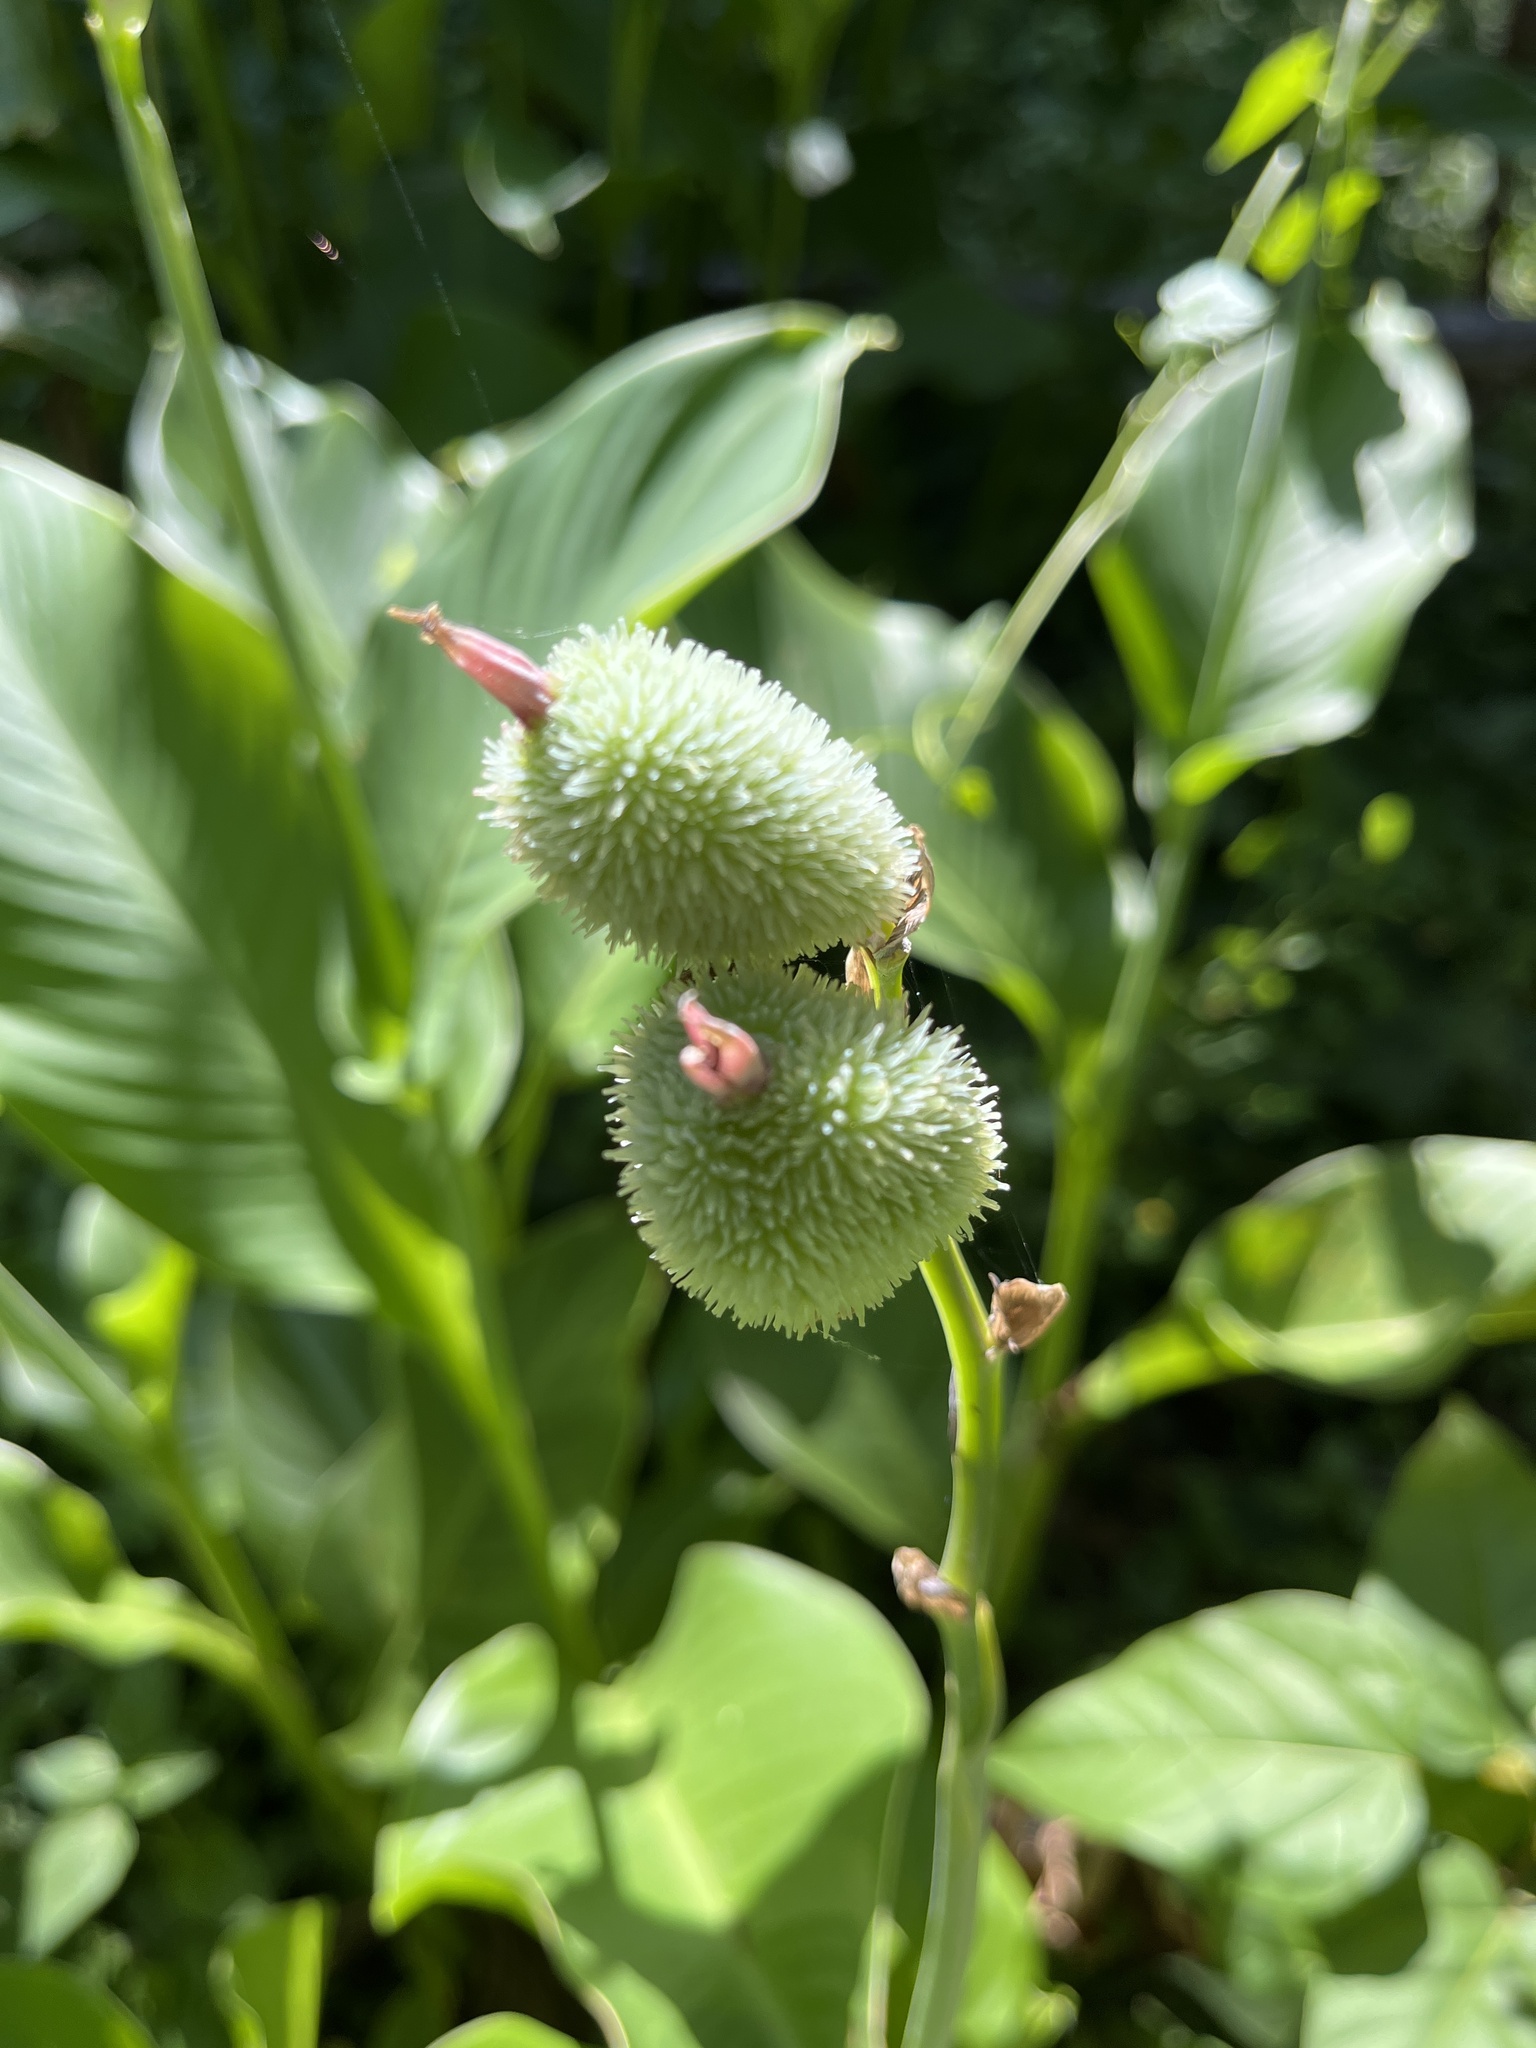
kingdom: Plantae
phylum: Tracheophyta
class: Liliopsida
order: Zingiberales
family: Cannaceae
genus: Canna
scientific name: Canna indica
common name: Indian shot
